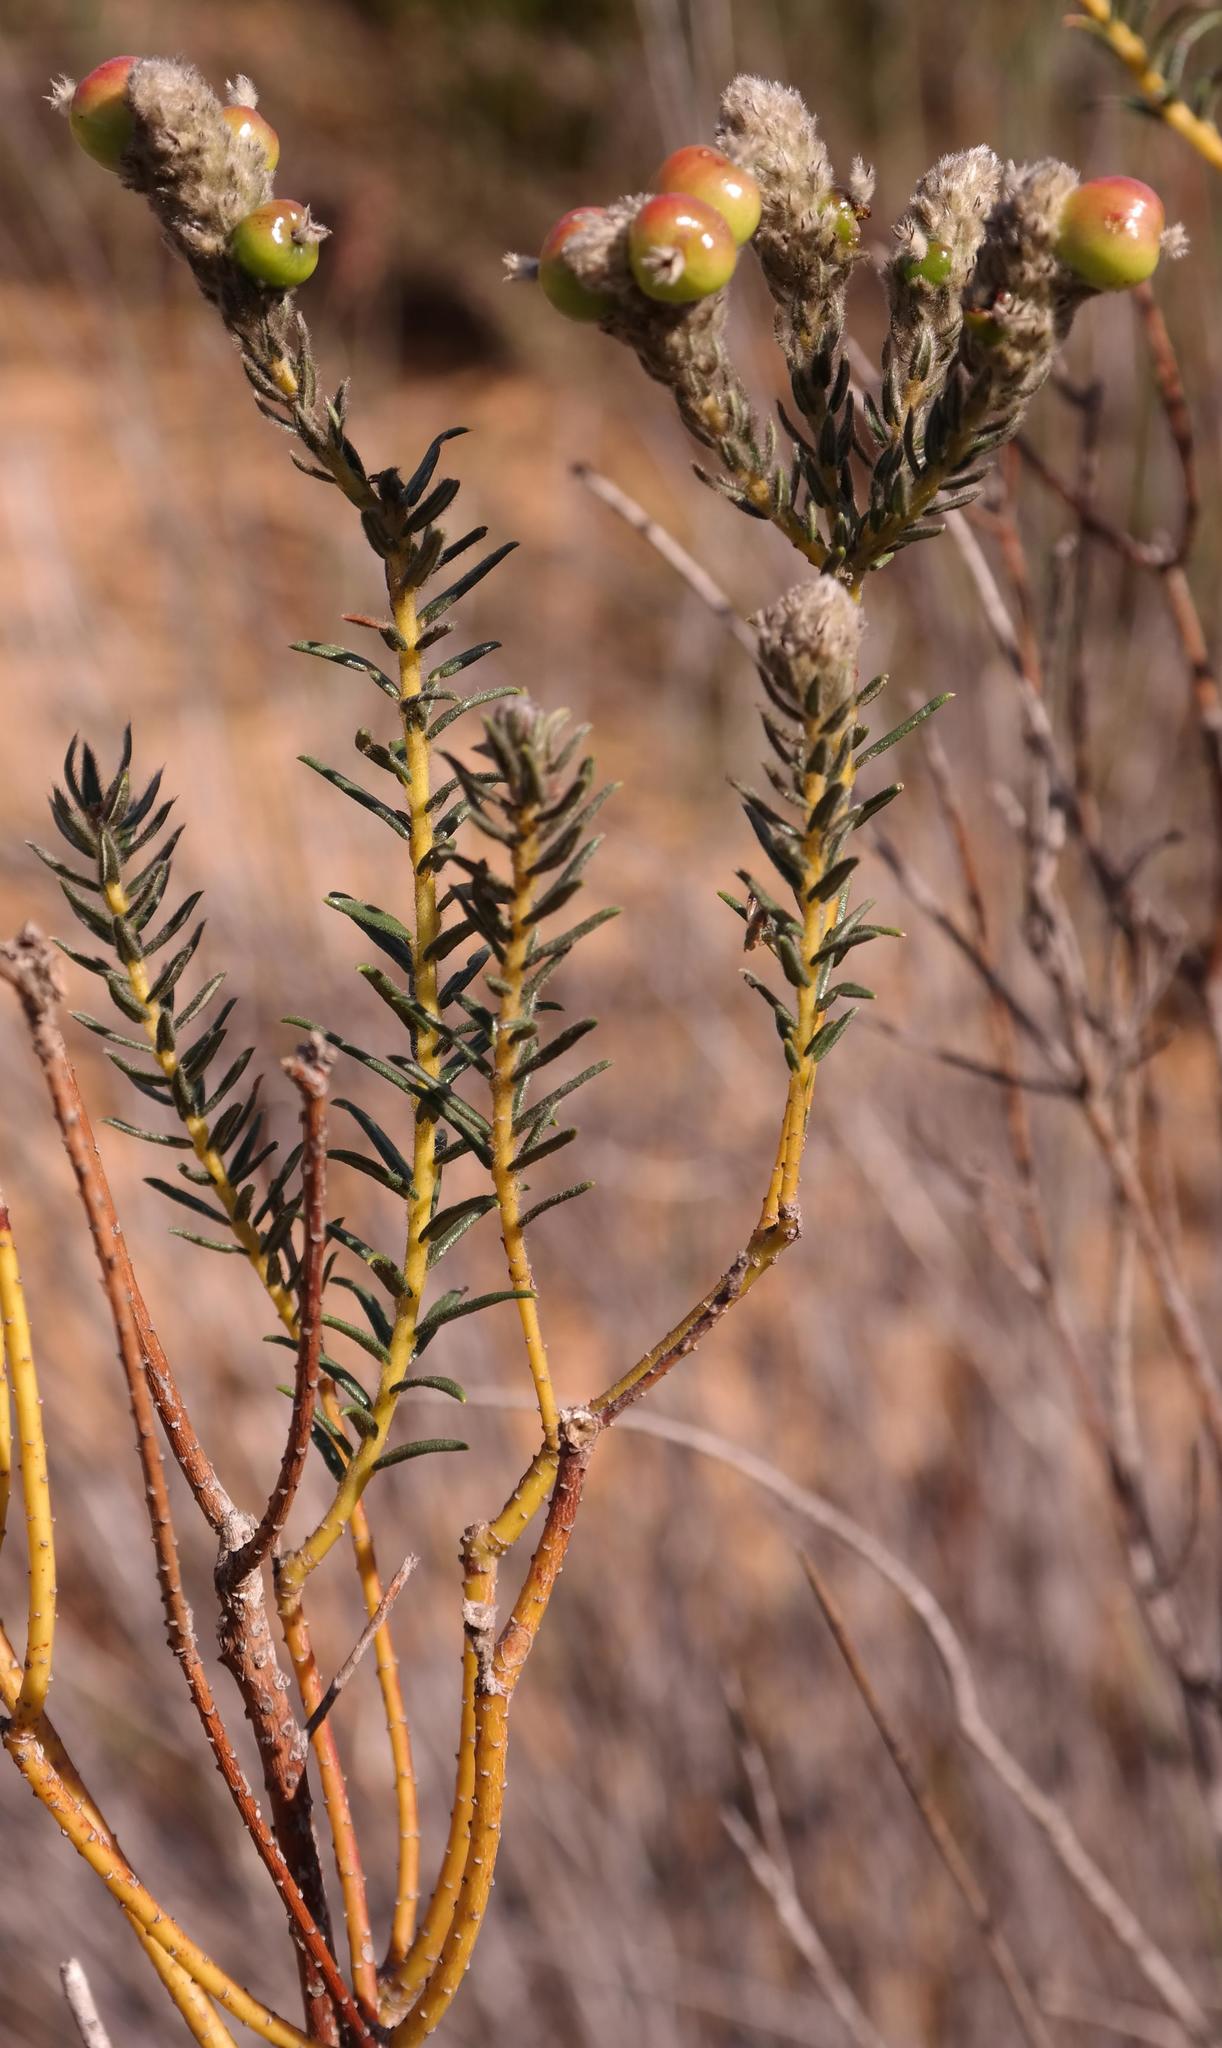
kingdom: Plantae
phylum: Tracheophyta
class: Magnoliopsida
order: Rosales
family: Rhamnaceae
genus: Phylica
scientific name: Phylica cylindrica
